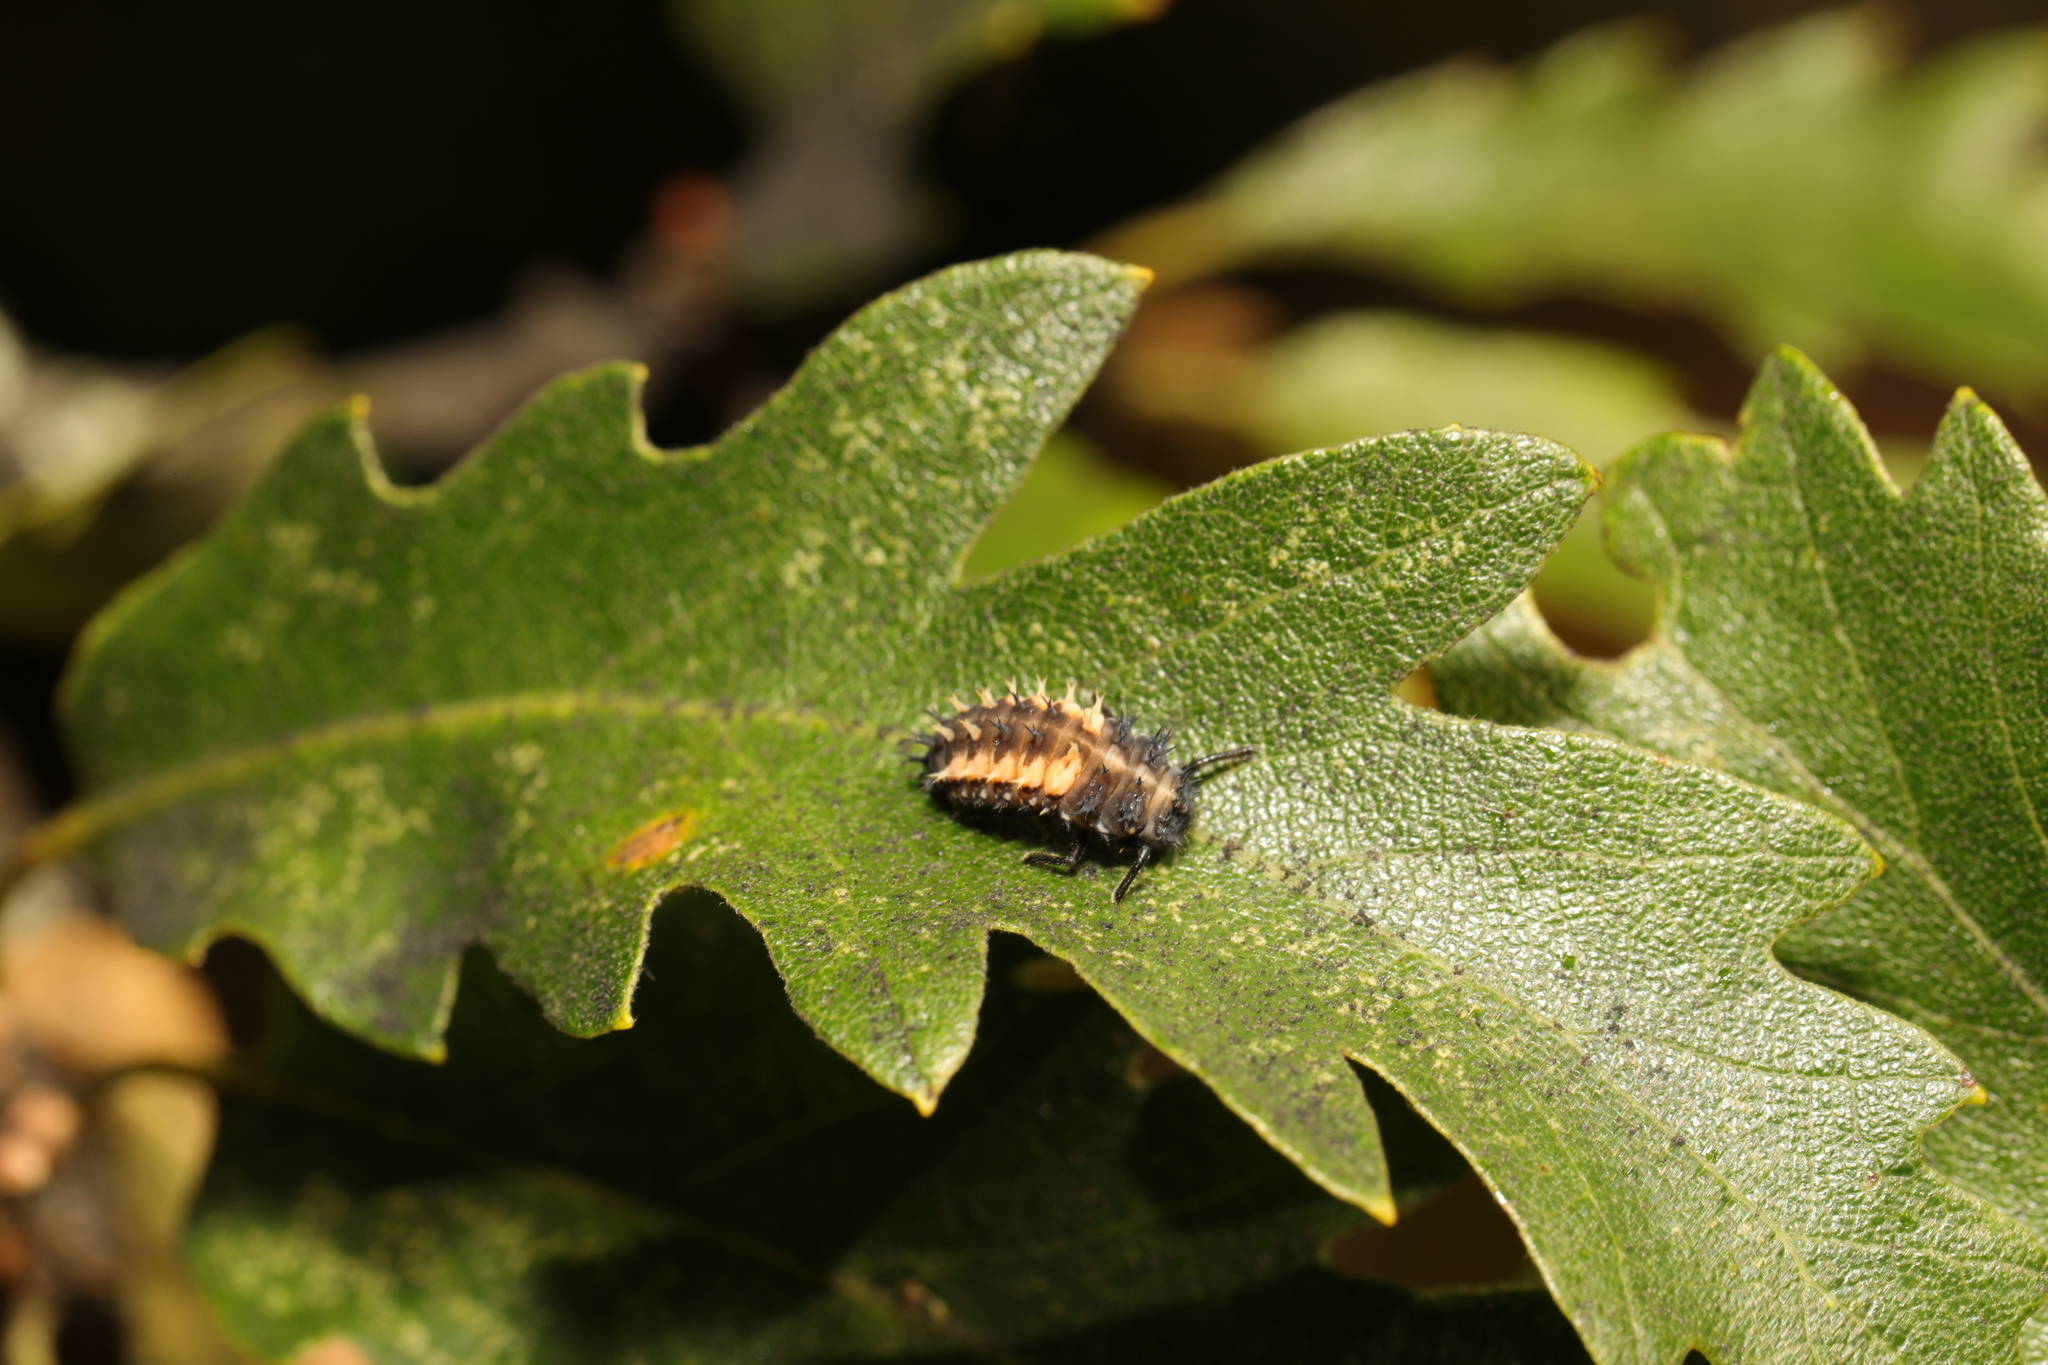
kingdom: Animalia
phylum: Arthropoda
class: Insecta
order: Coleoptera
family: Coccinellidae
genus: Harmonia
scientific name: Harmonia axyridis
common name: Harlequin ladybird
